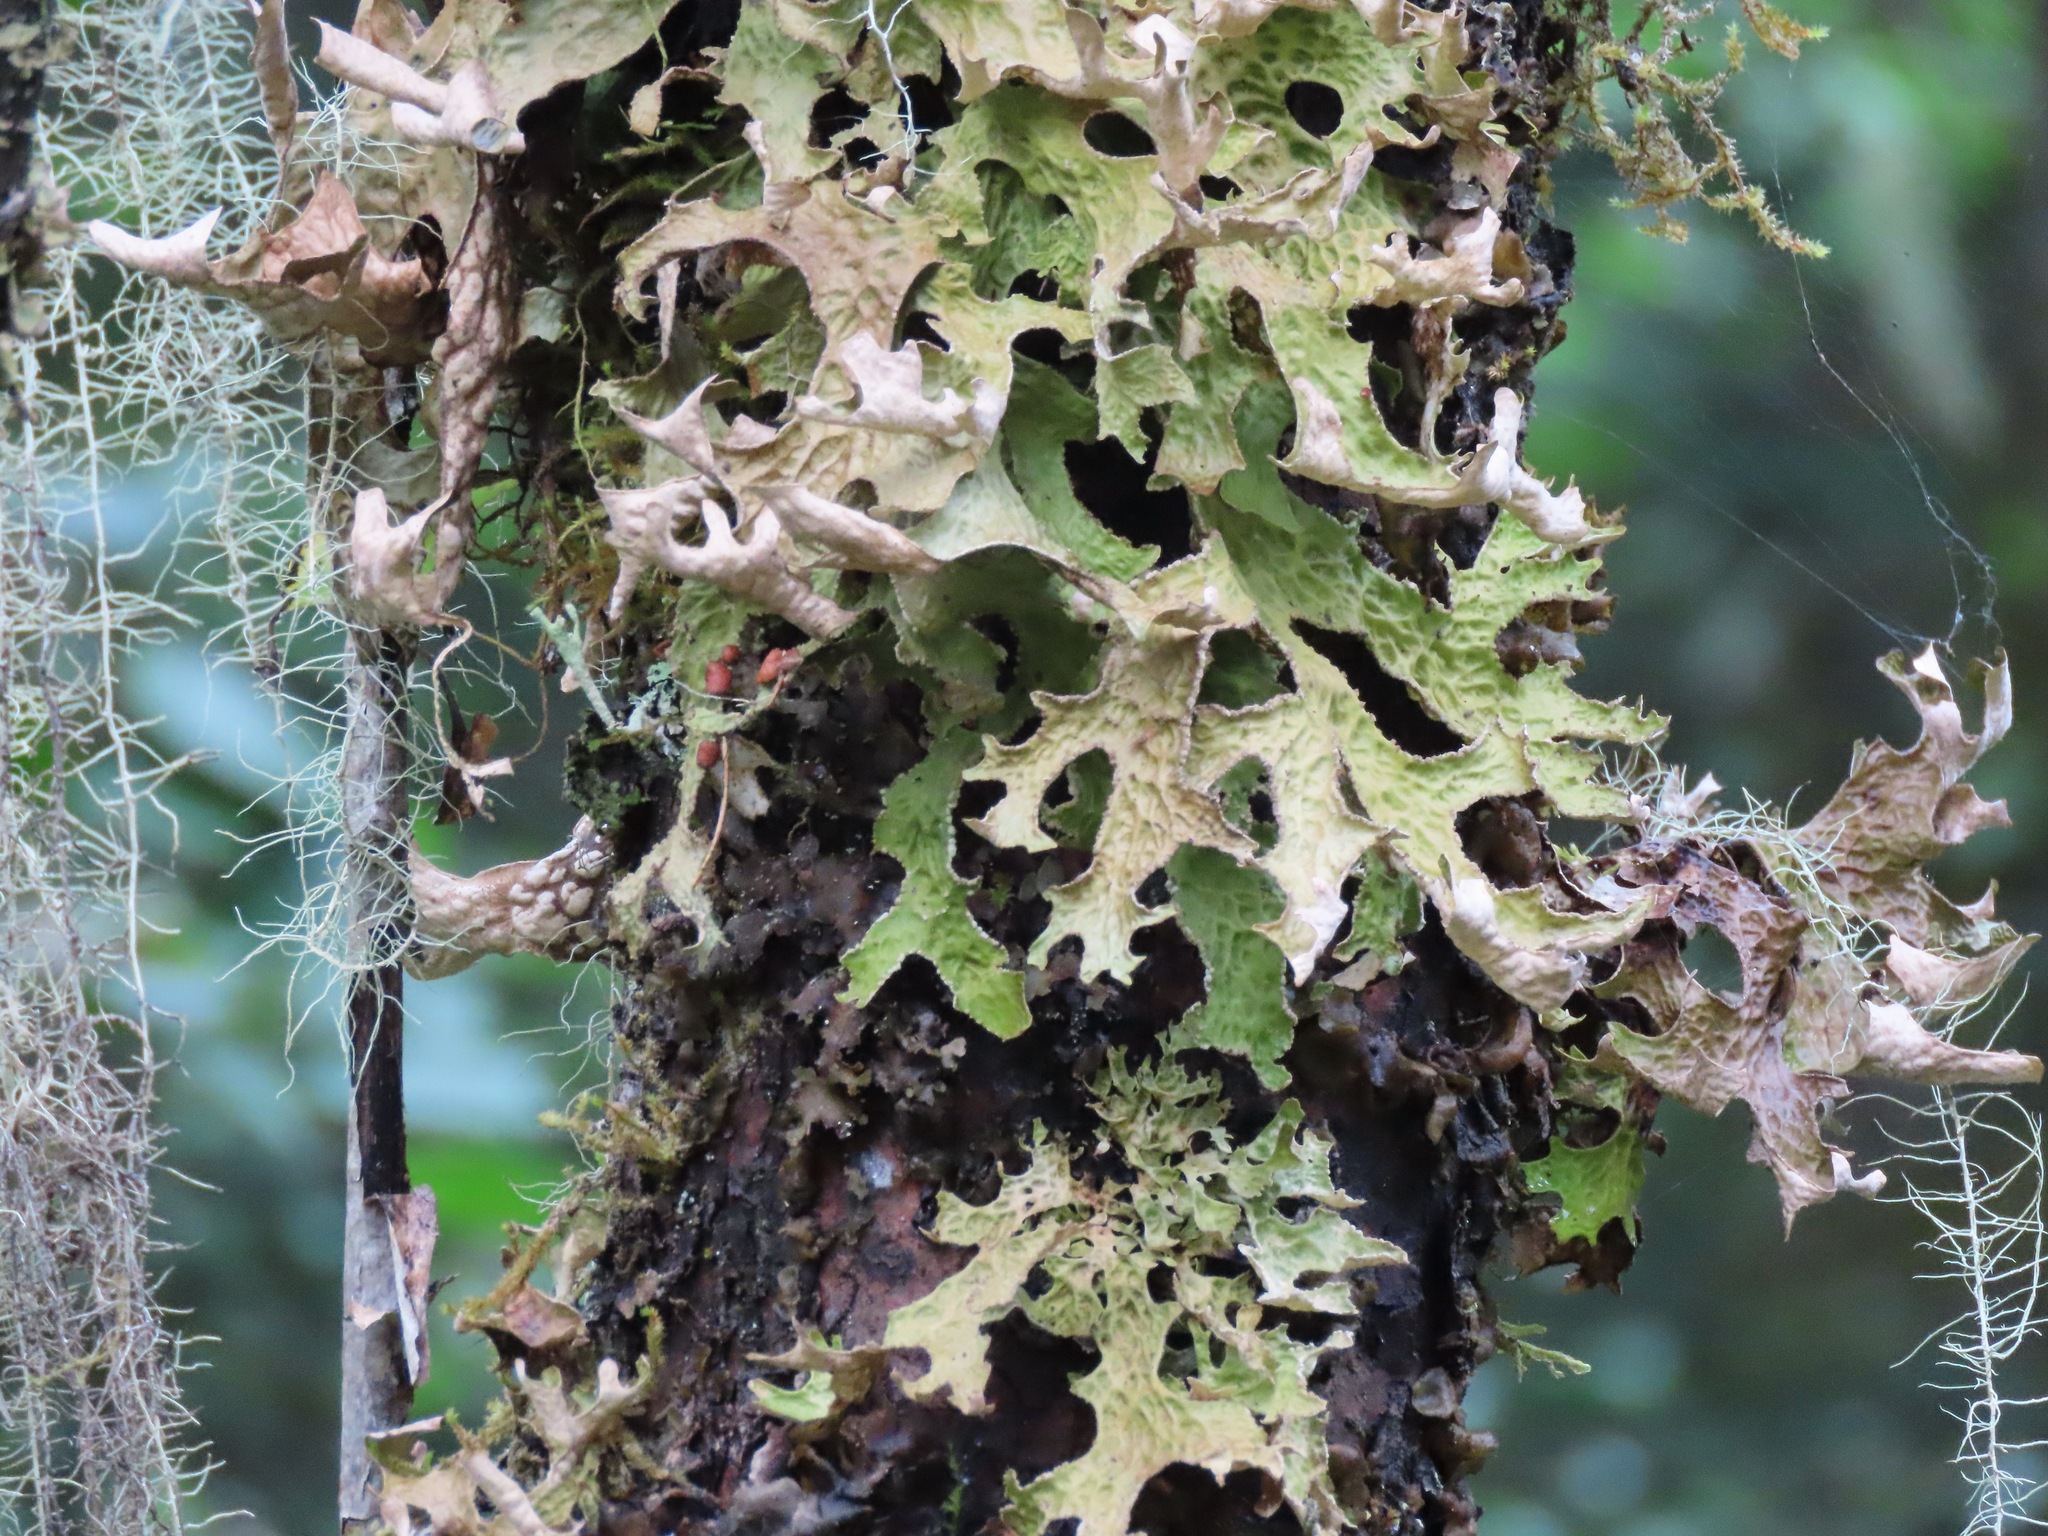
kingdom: Fungi
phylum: Ascomycota
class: Lecanoromycetes
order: Peltigerales
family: Lobariaceae
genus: Lobaria
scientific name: Lobaria pulmonaria
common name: Lungwort
